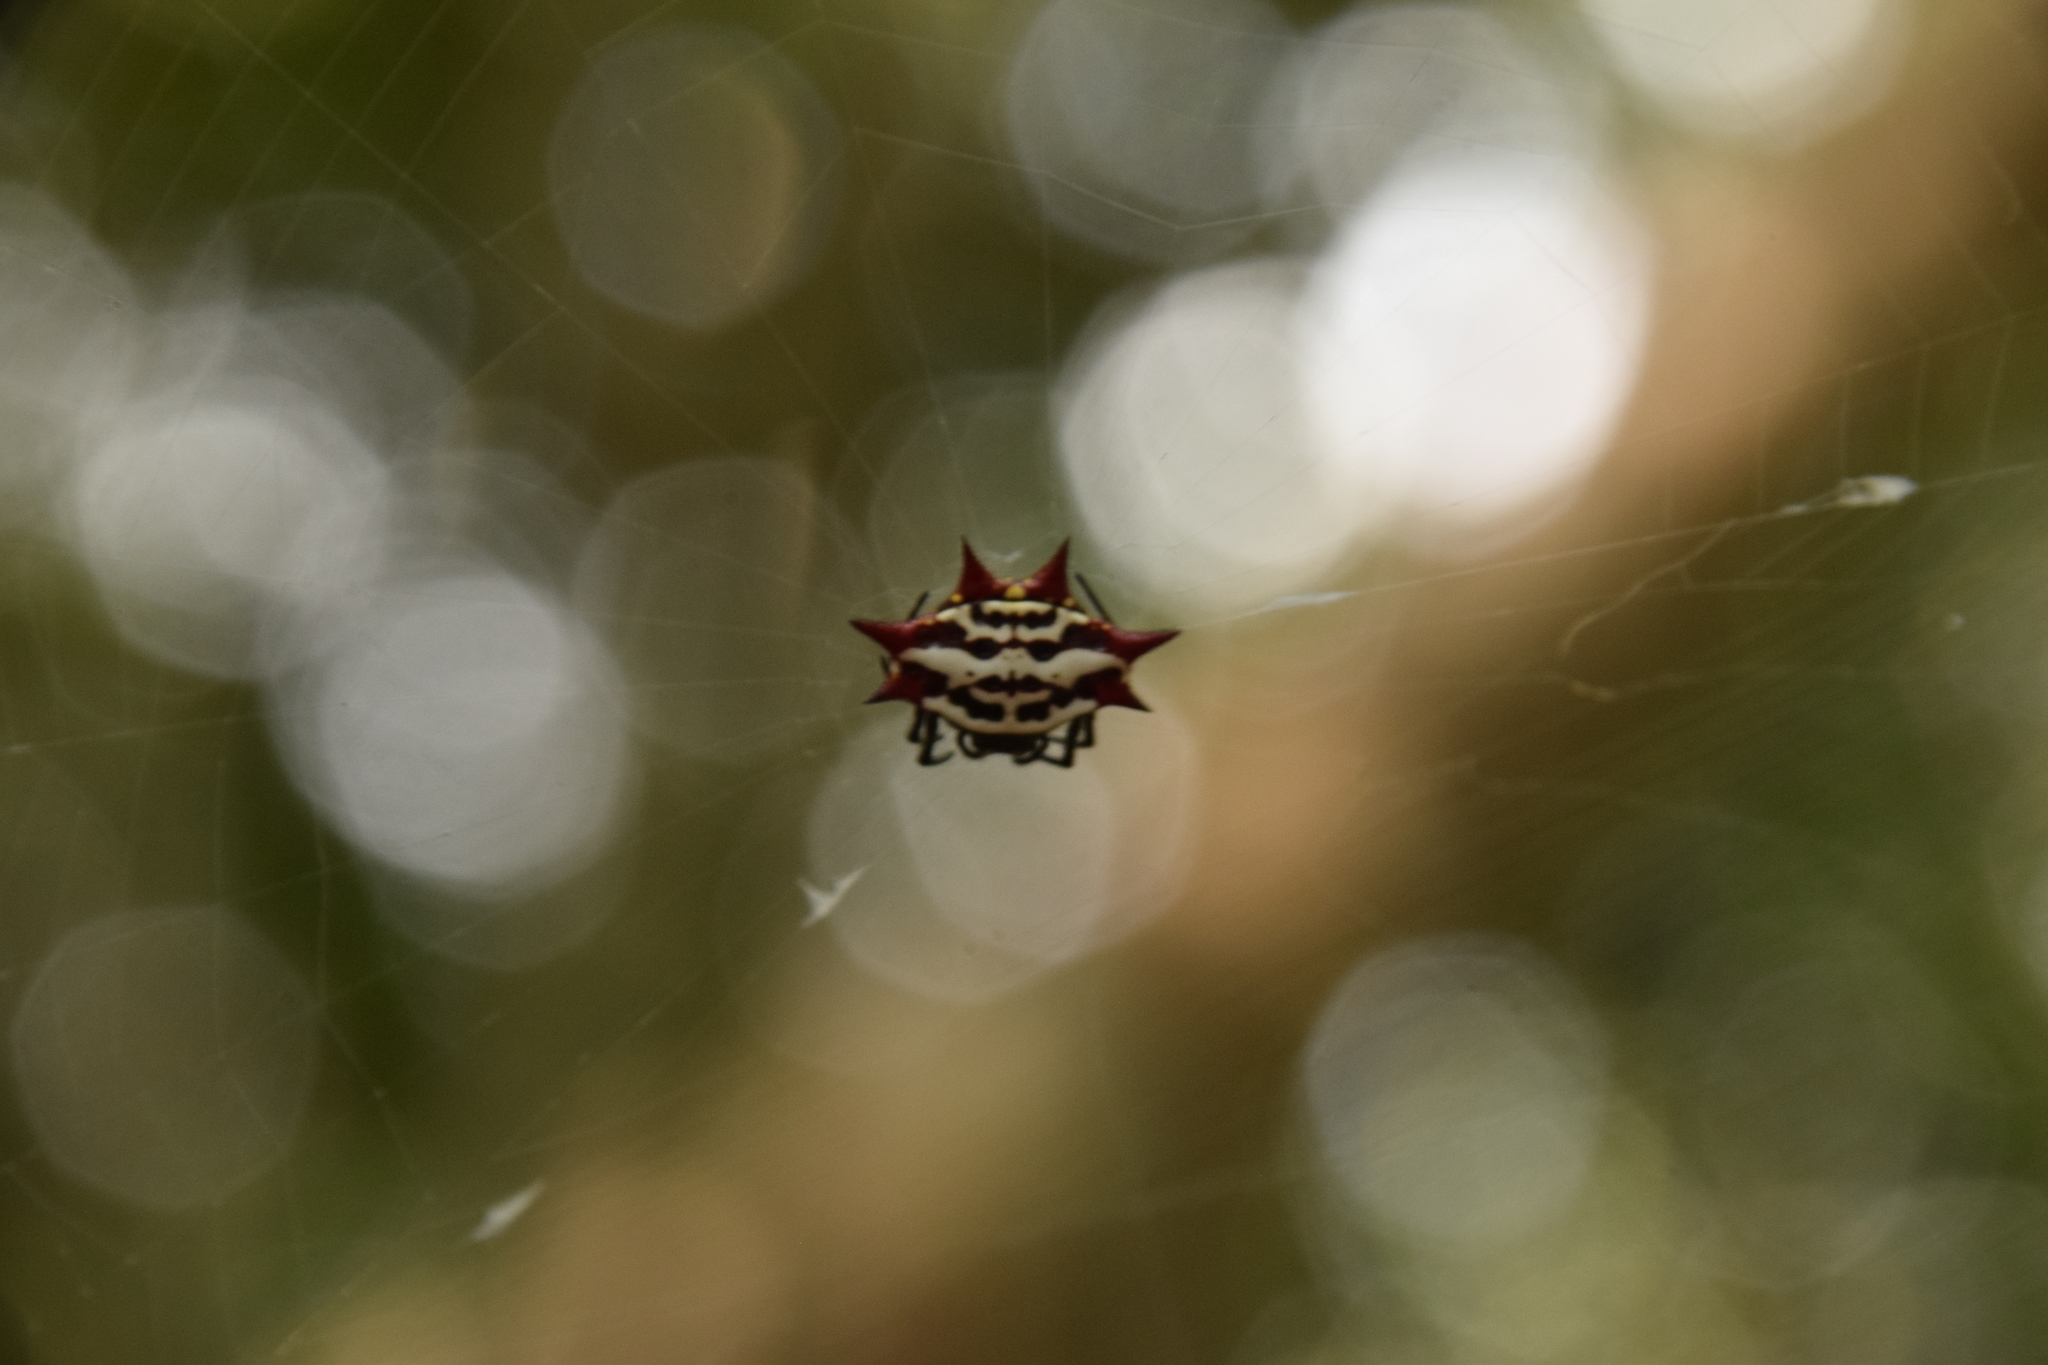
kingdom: Animalia
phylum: Arthropoda
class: Arachnida
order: Araneae
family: Araneidae
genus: Gasteracantha
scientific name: Gasteracantha cancriformis
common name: Orb weavers
